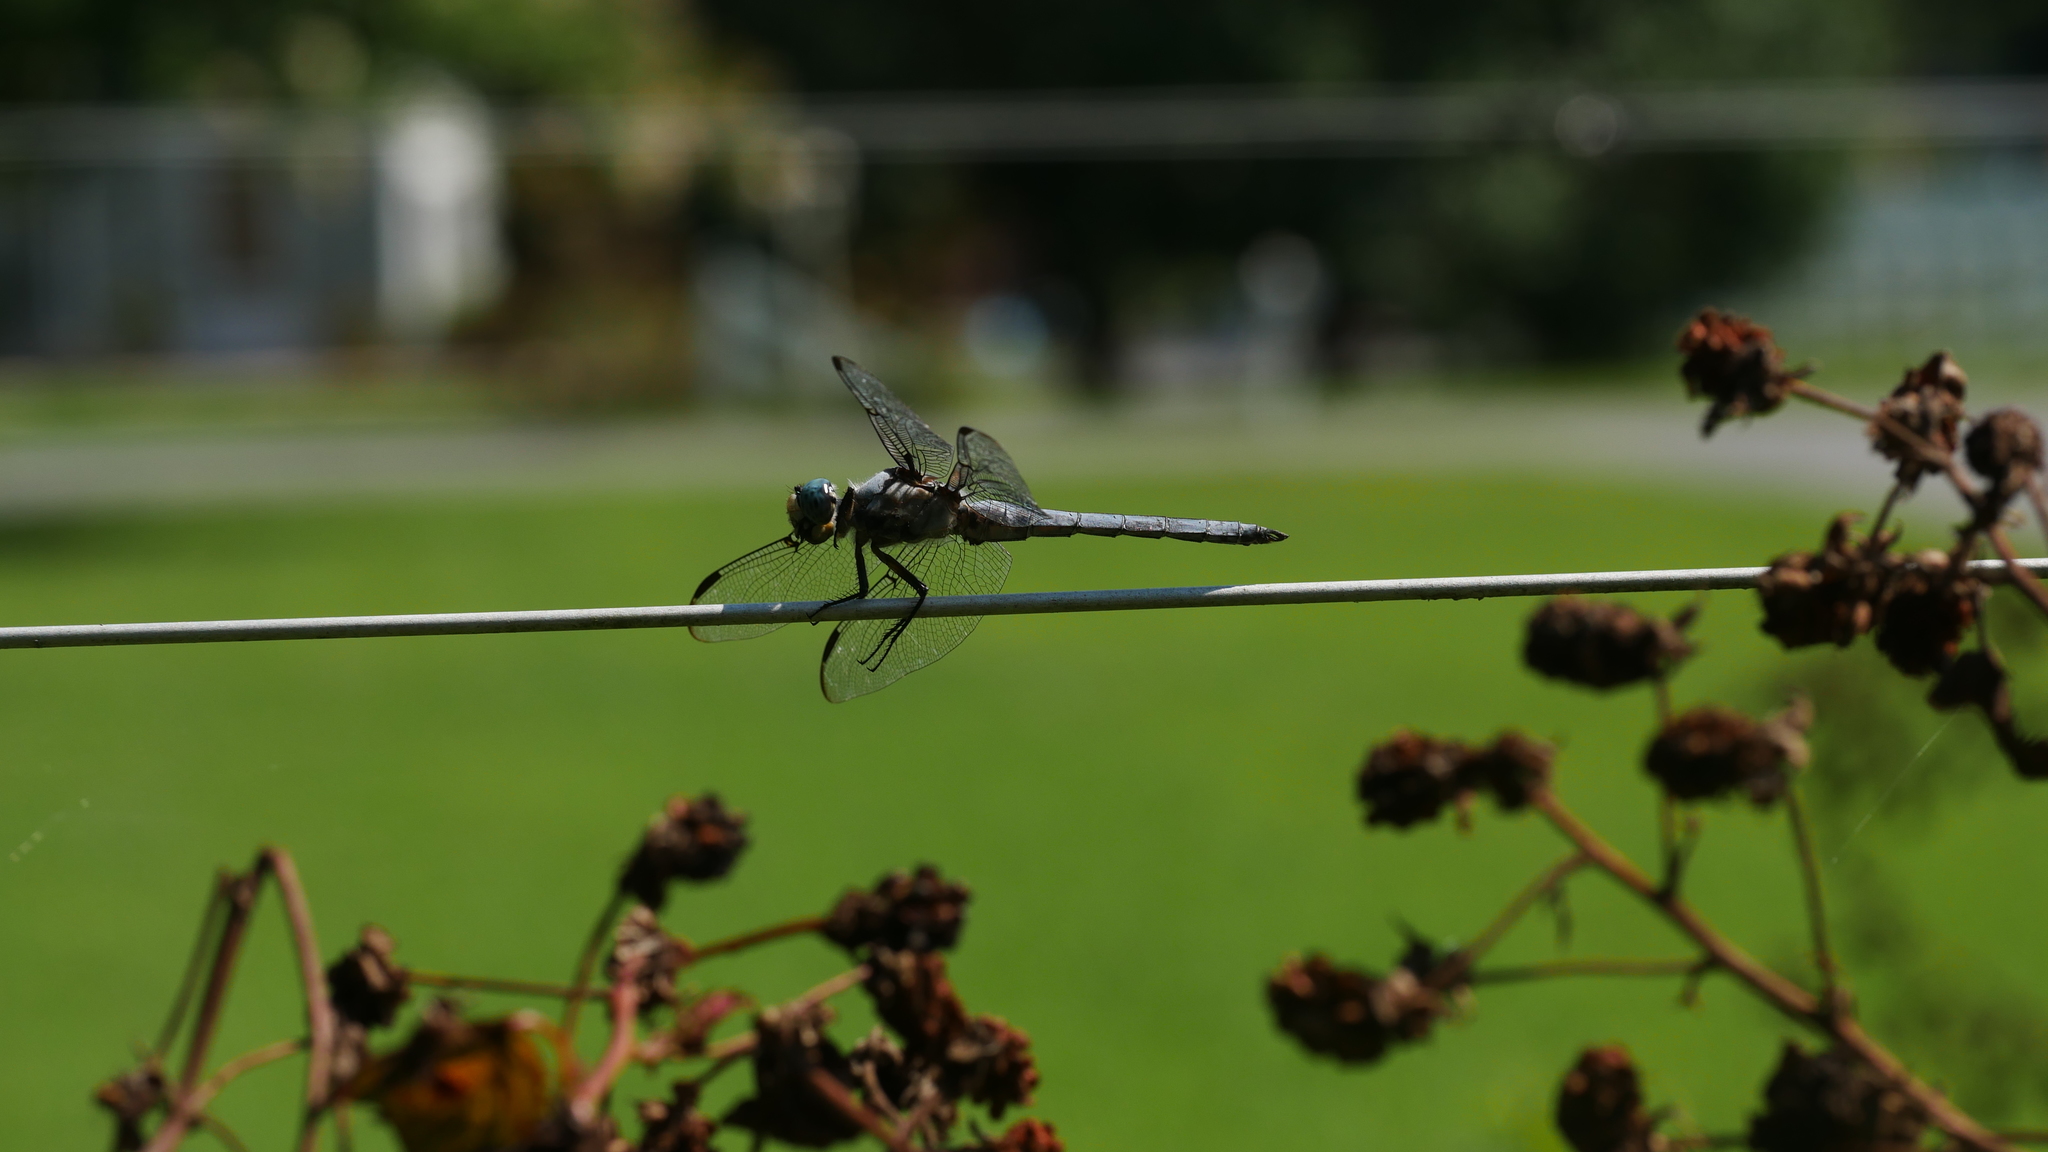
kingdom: Animalia
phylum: Arthropoda
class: Insecta
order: Odonata
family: Libellulidae
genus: Libellula
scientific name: Libellula vibrans
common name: Great blue skimmer
